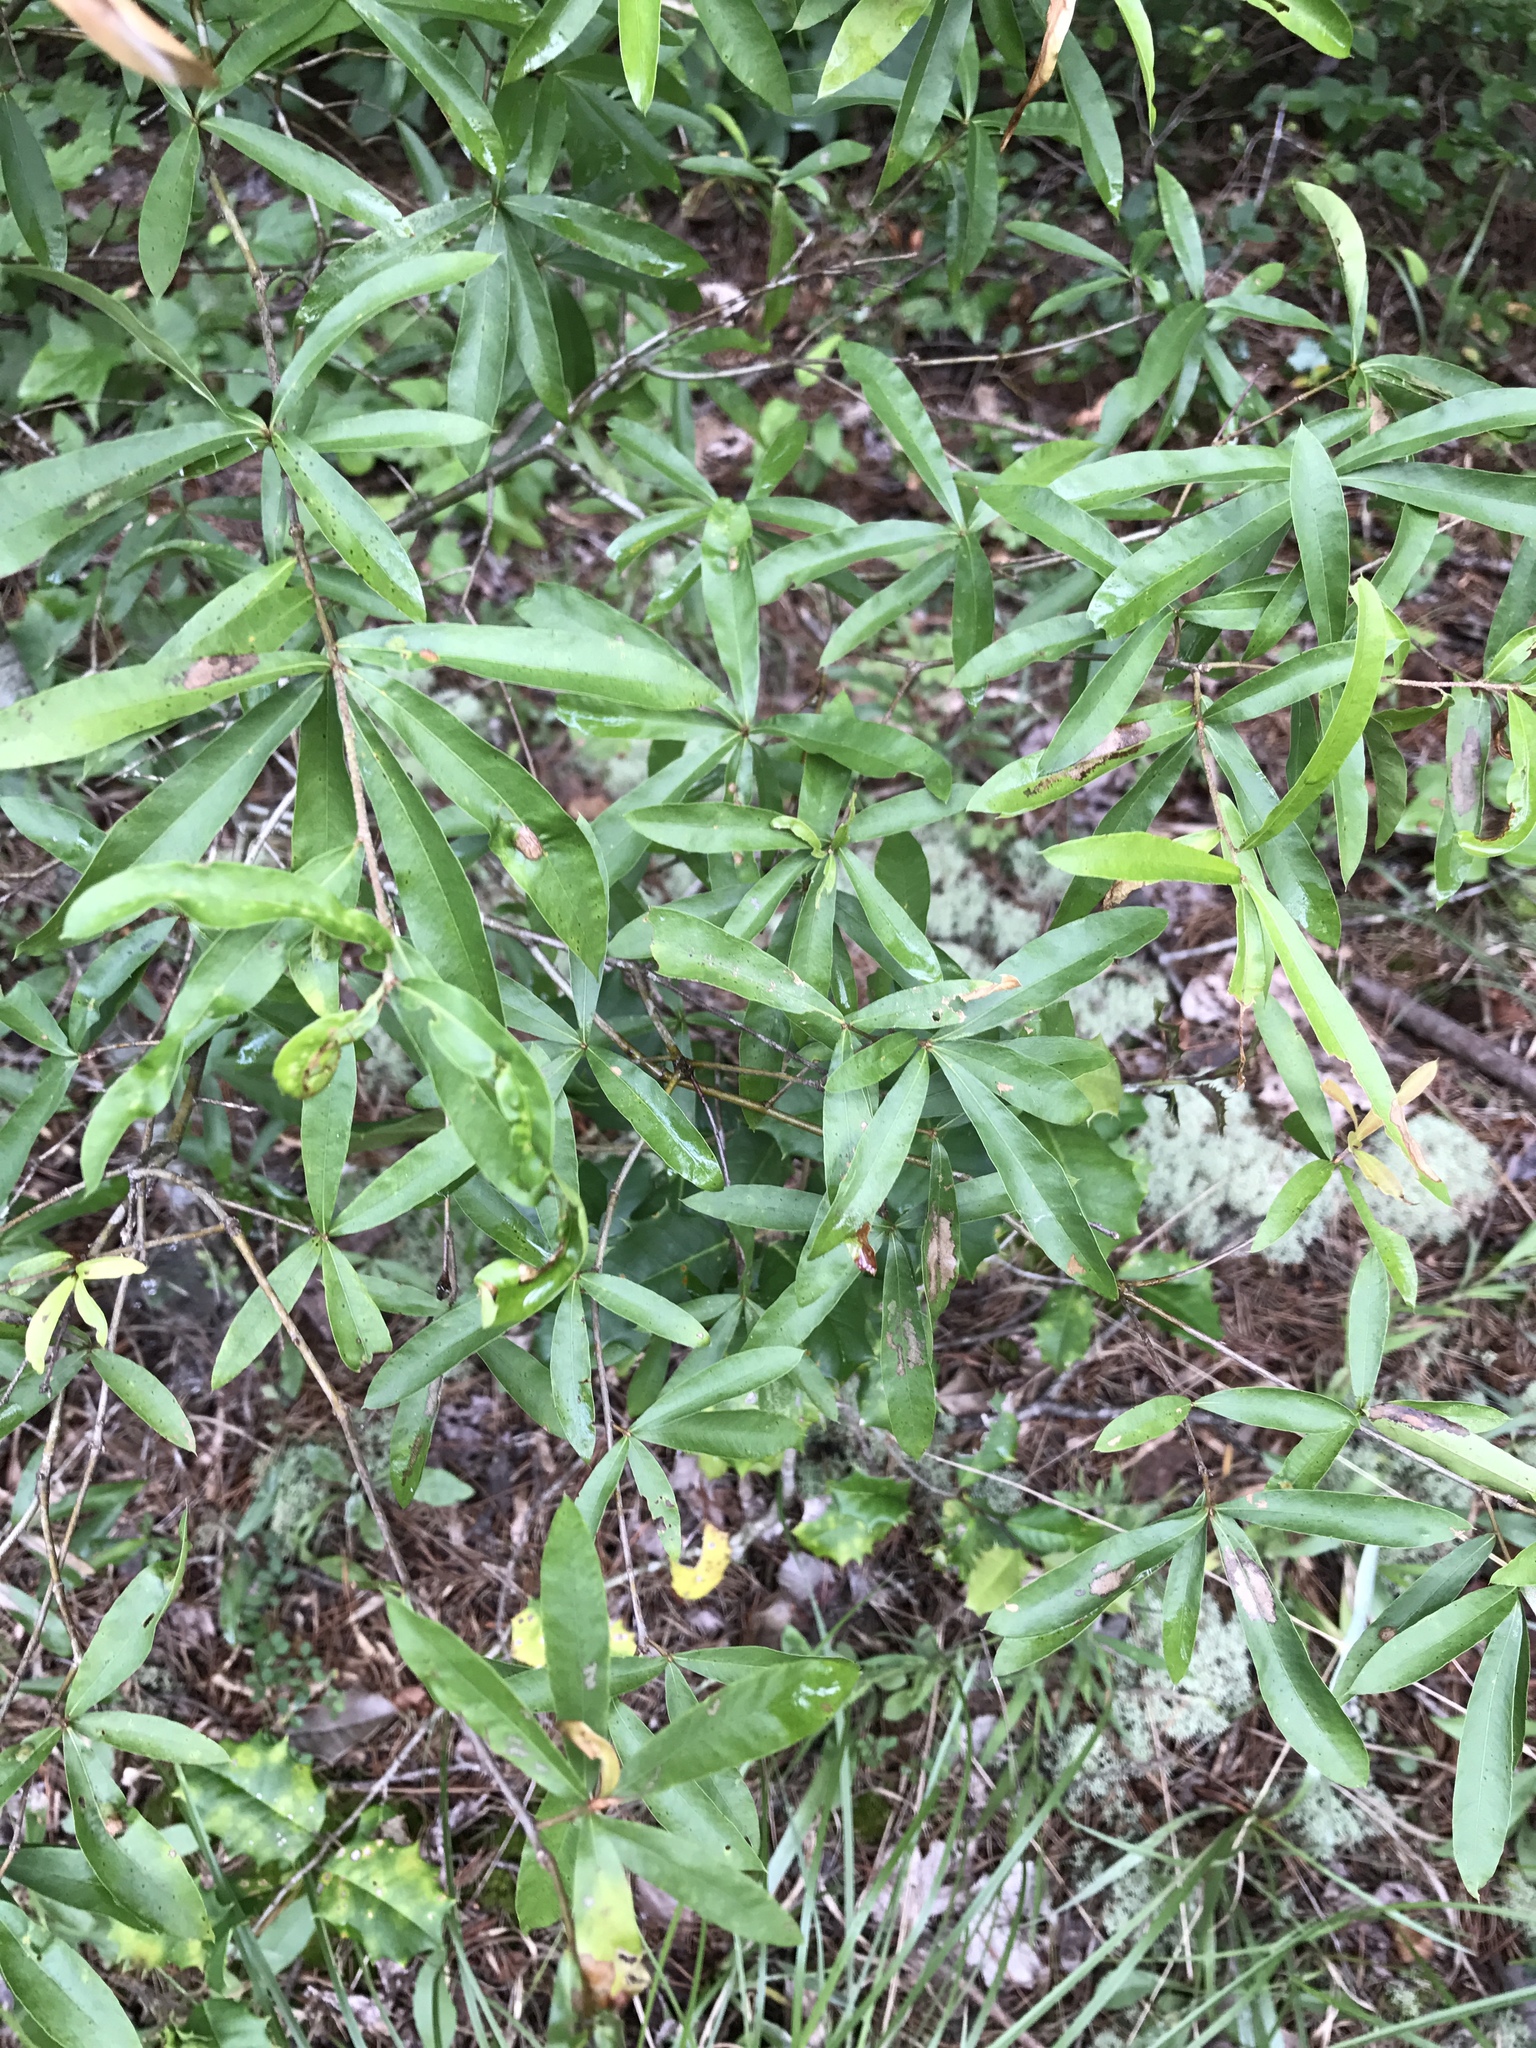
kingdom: Plantae
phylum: Tracheophyta
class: Magnoliopsida
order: Fagales
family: Fagaceae
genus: Quercus
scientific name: Quercus phellos
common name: Willow oak
